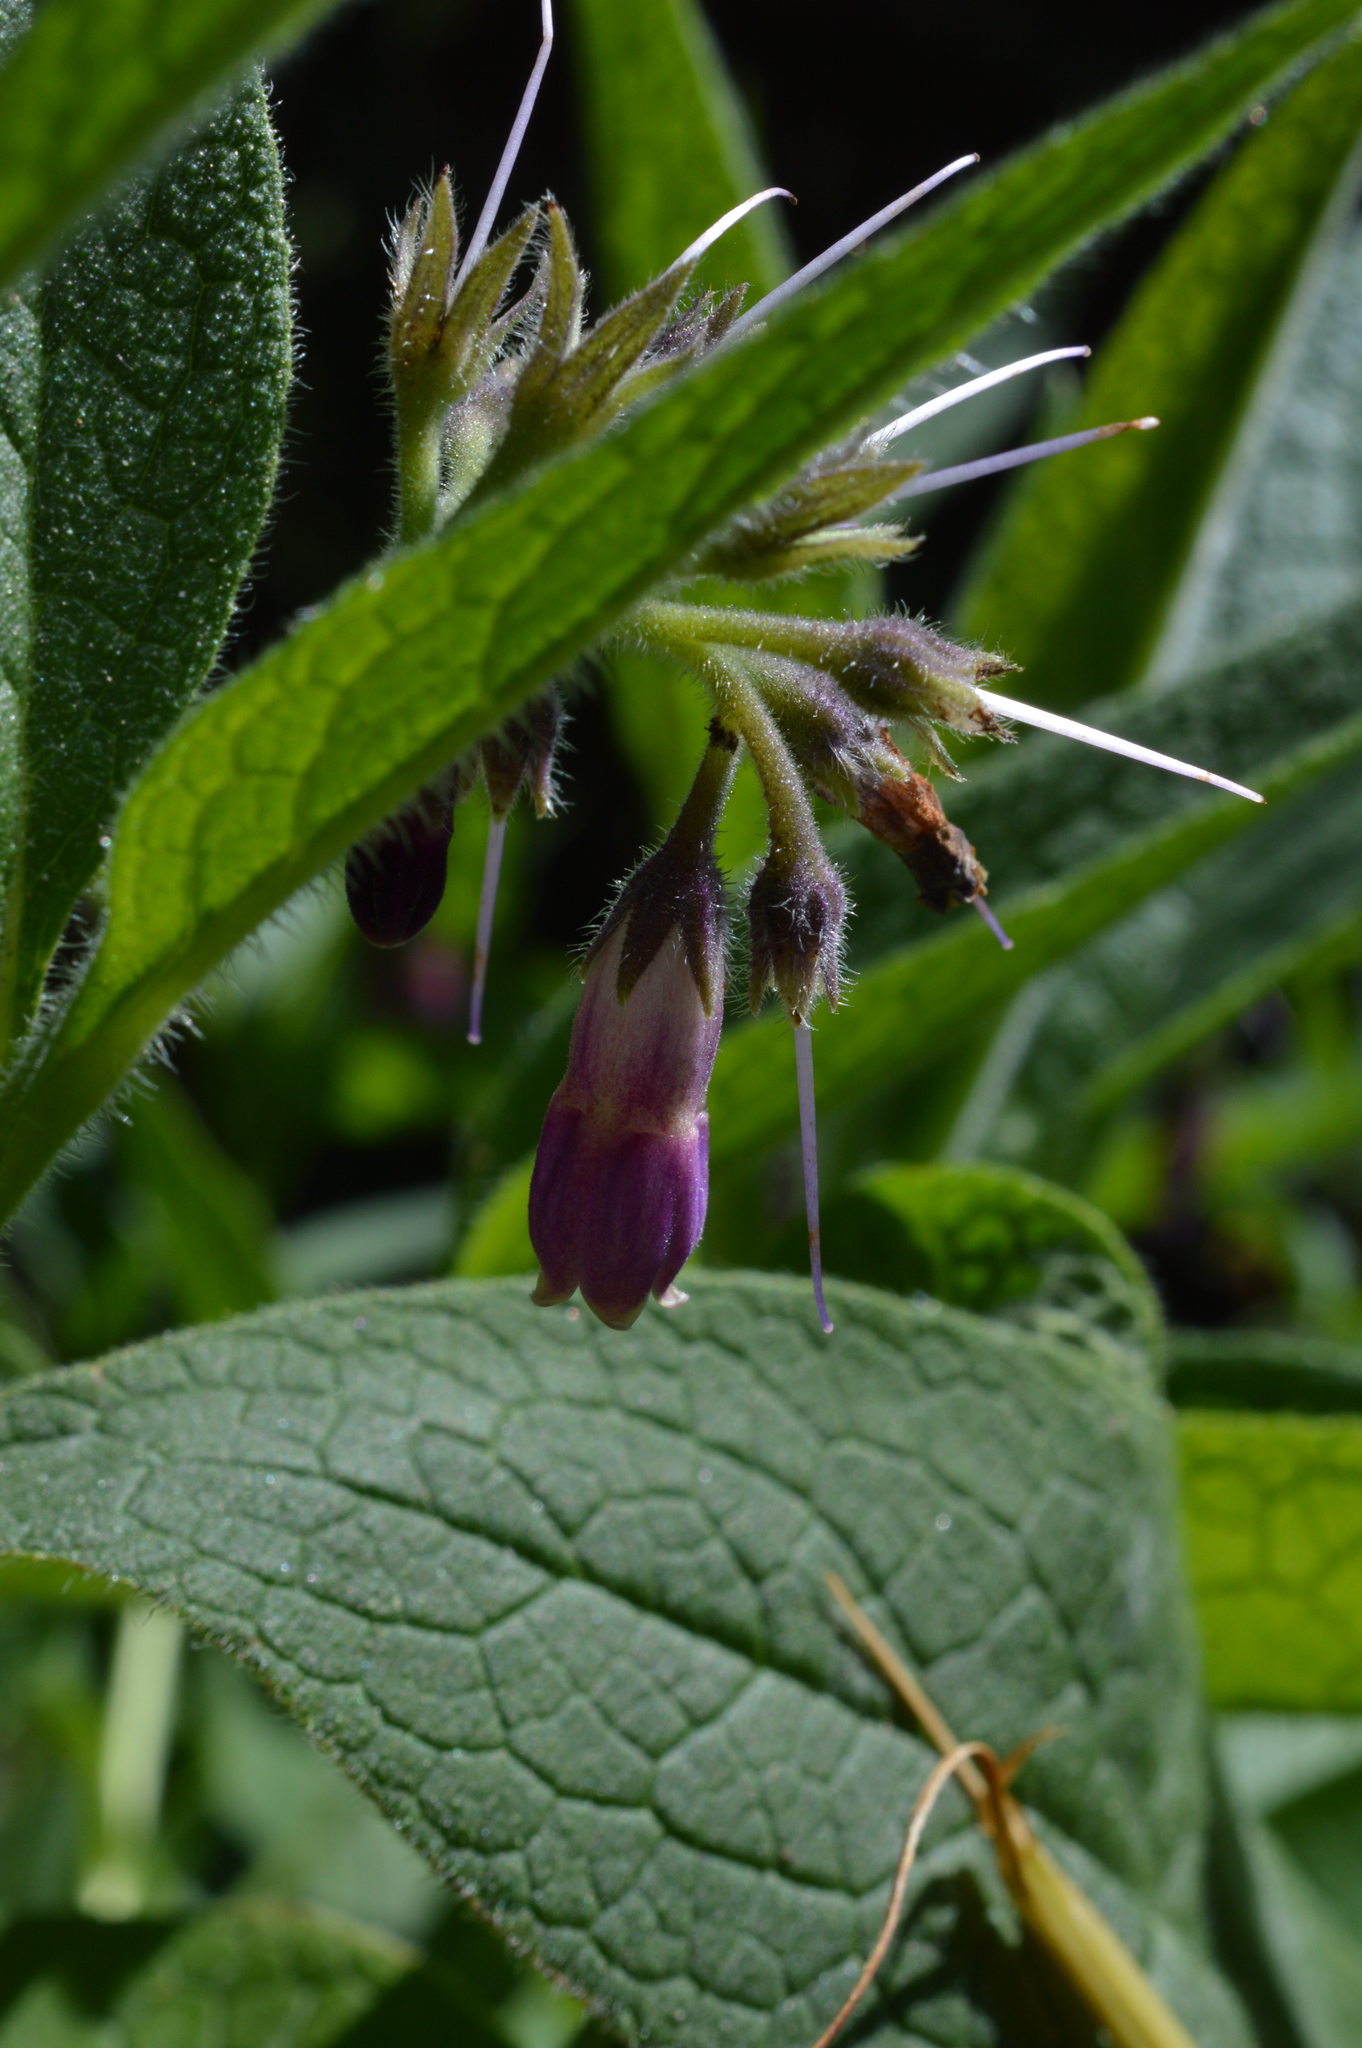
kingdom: Plantae
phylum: Tracheophyta
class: Magnoliopsida
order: Boraginales
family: Boraginaceae
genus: Symphytum
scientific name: Symphytum officinale
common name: Common comfrey
